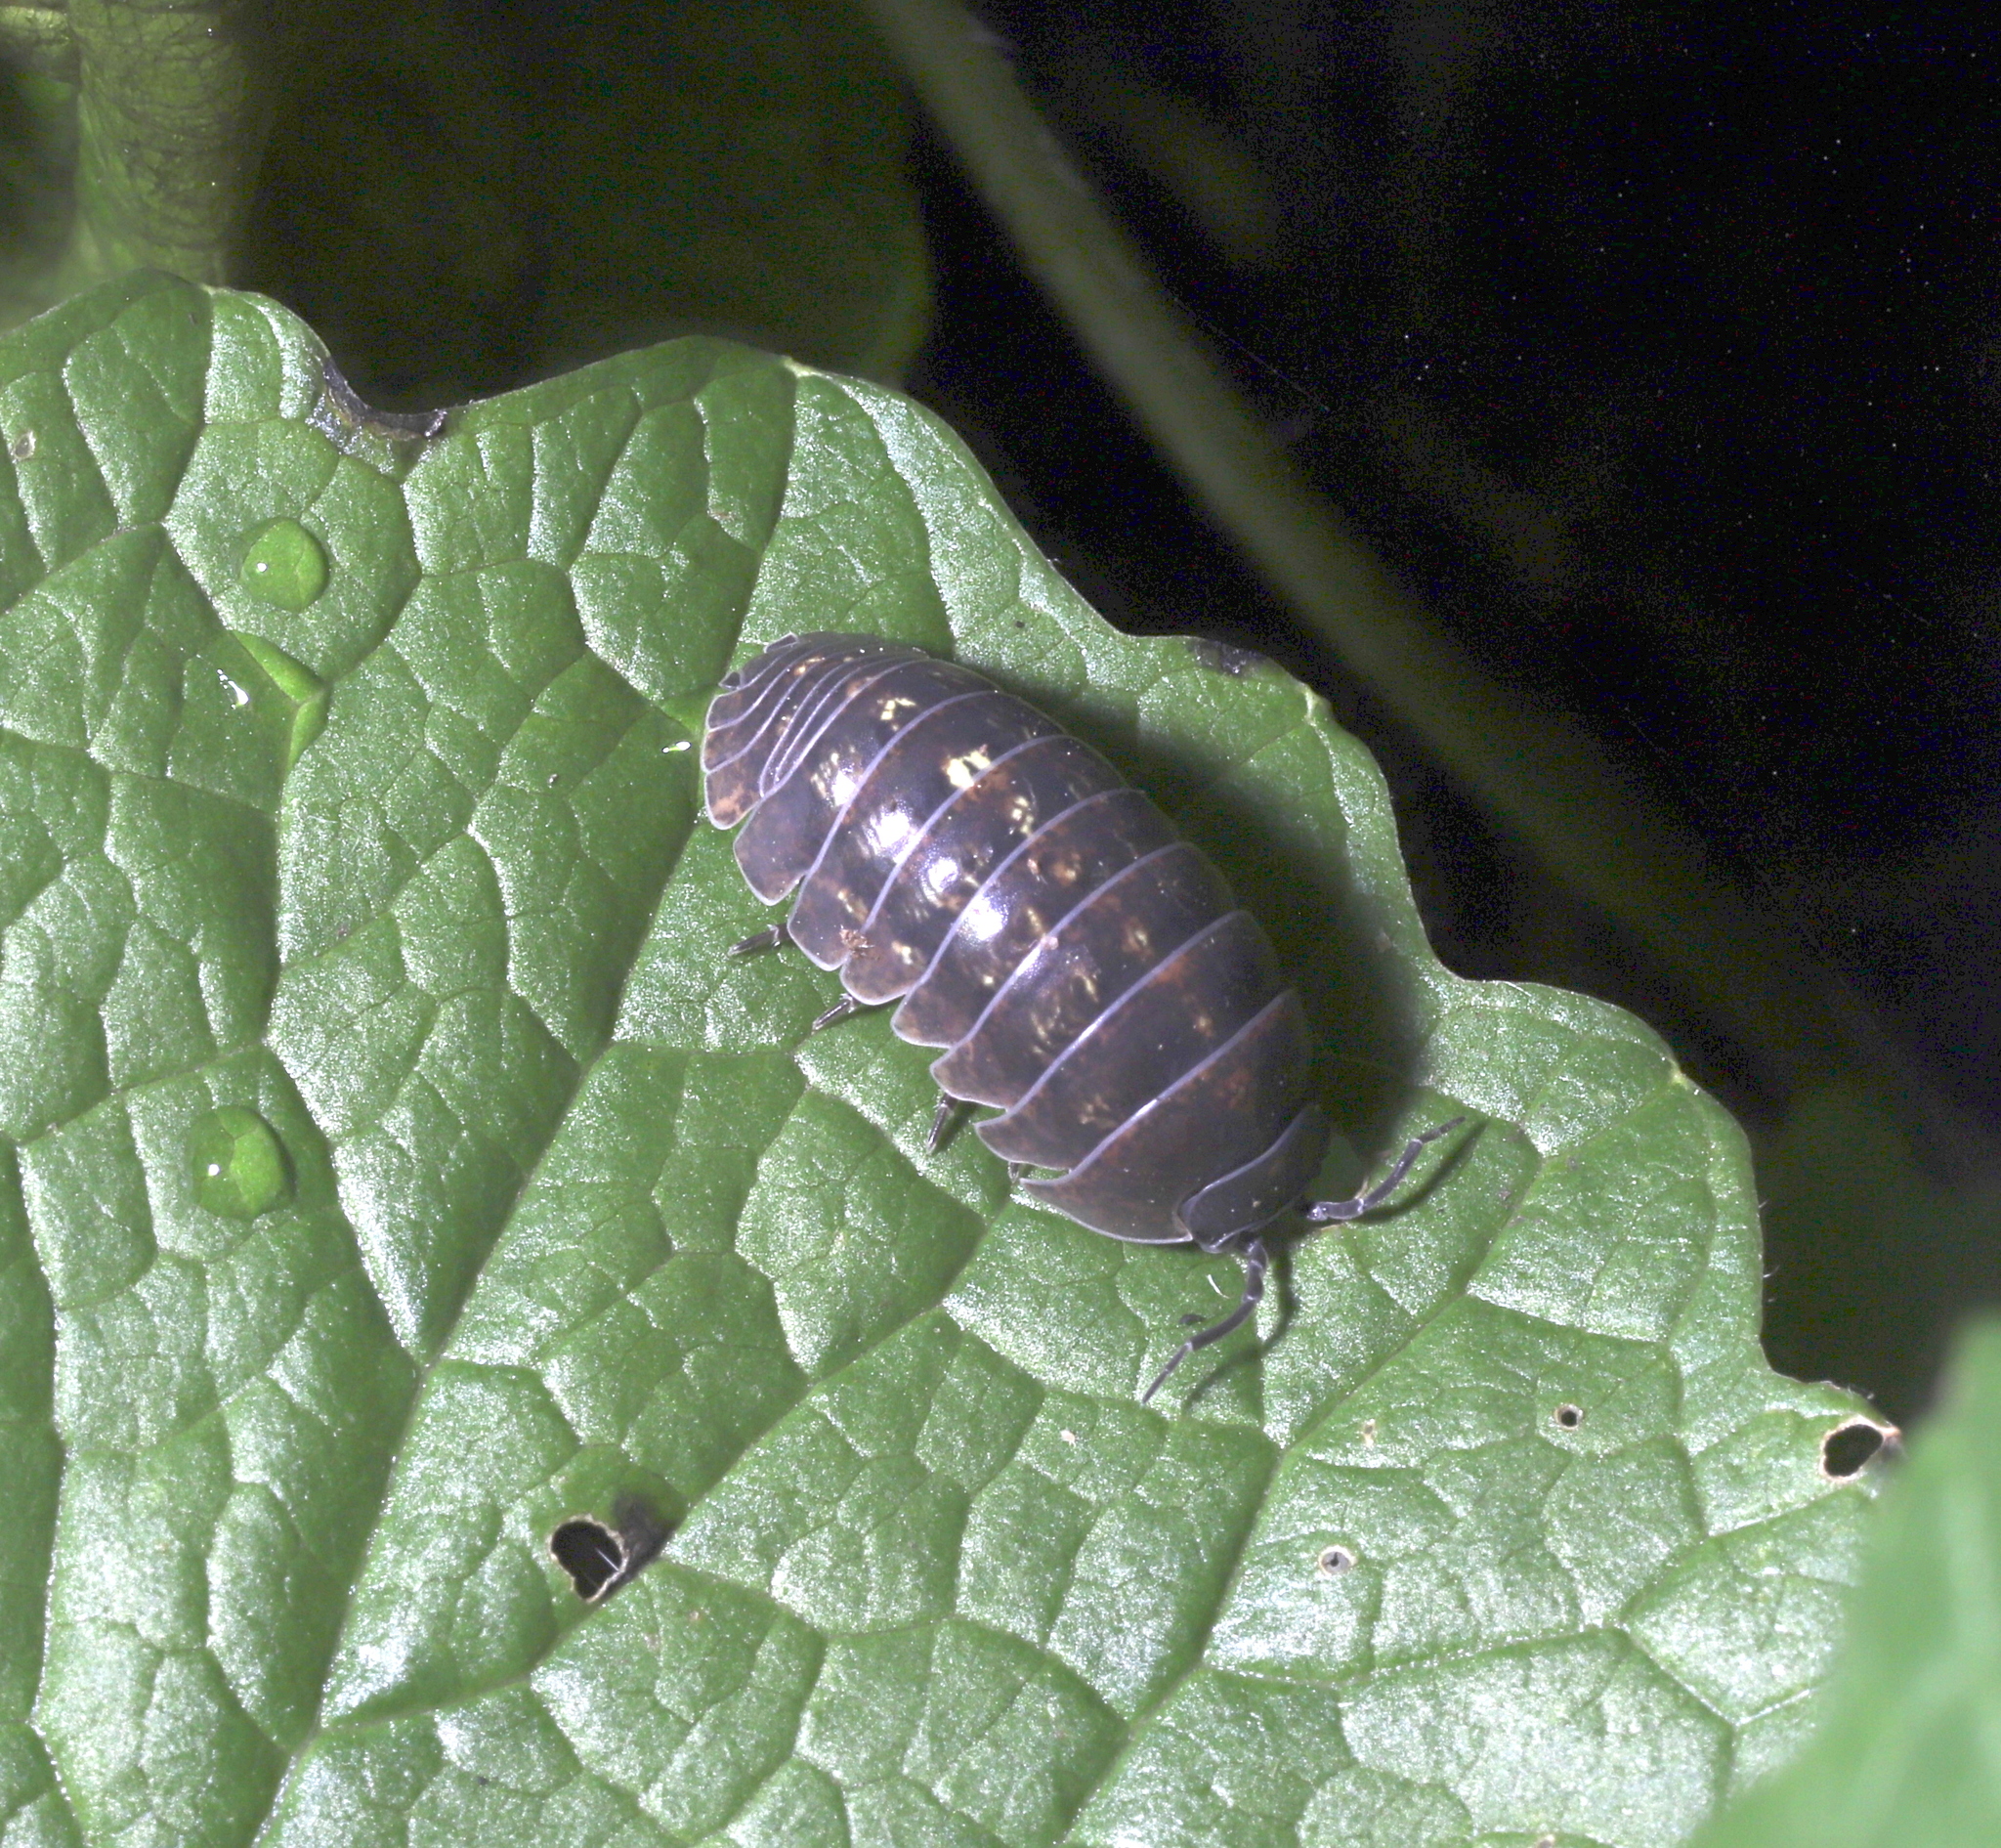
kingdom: Animalia
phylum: Arthropoda
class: Malacostraca
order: Isopoda
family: Armadillidiidae
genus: Armadillidium
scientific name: Armadillidium vulgare
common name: Common pill woodlouse
